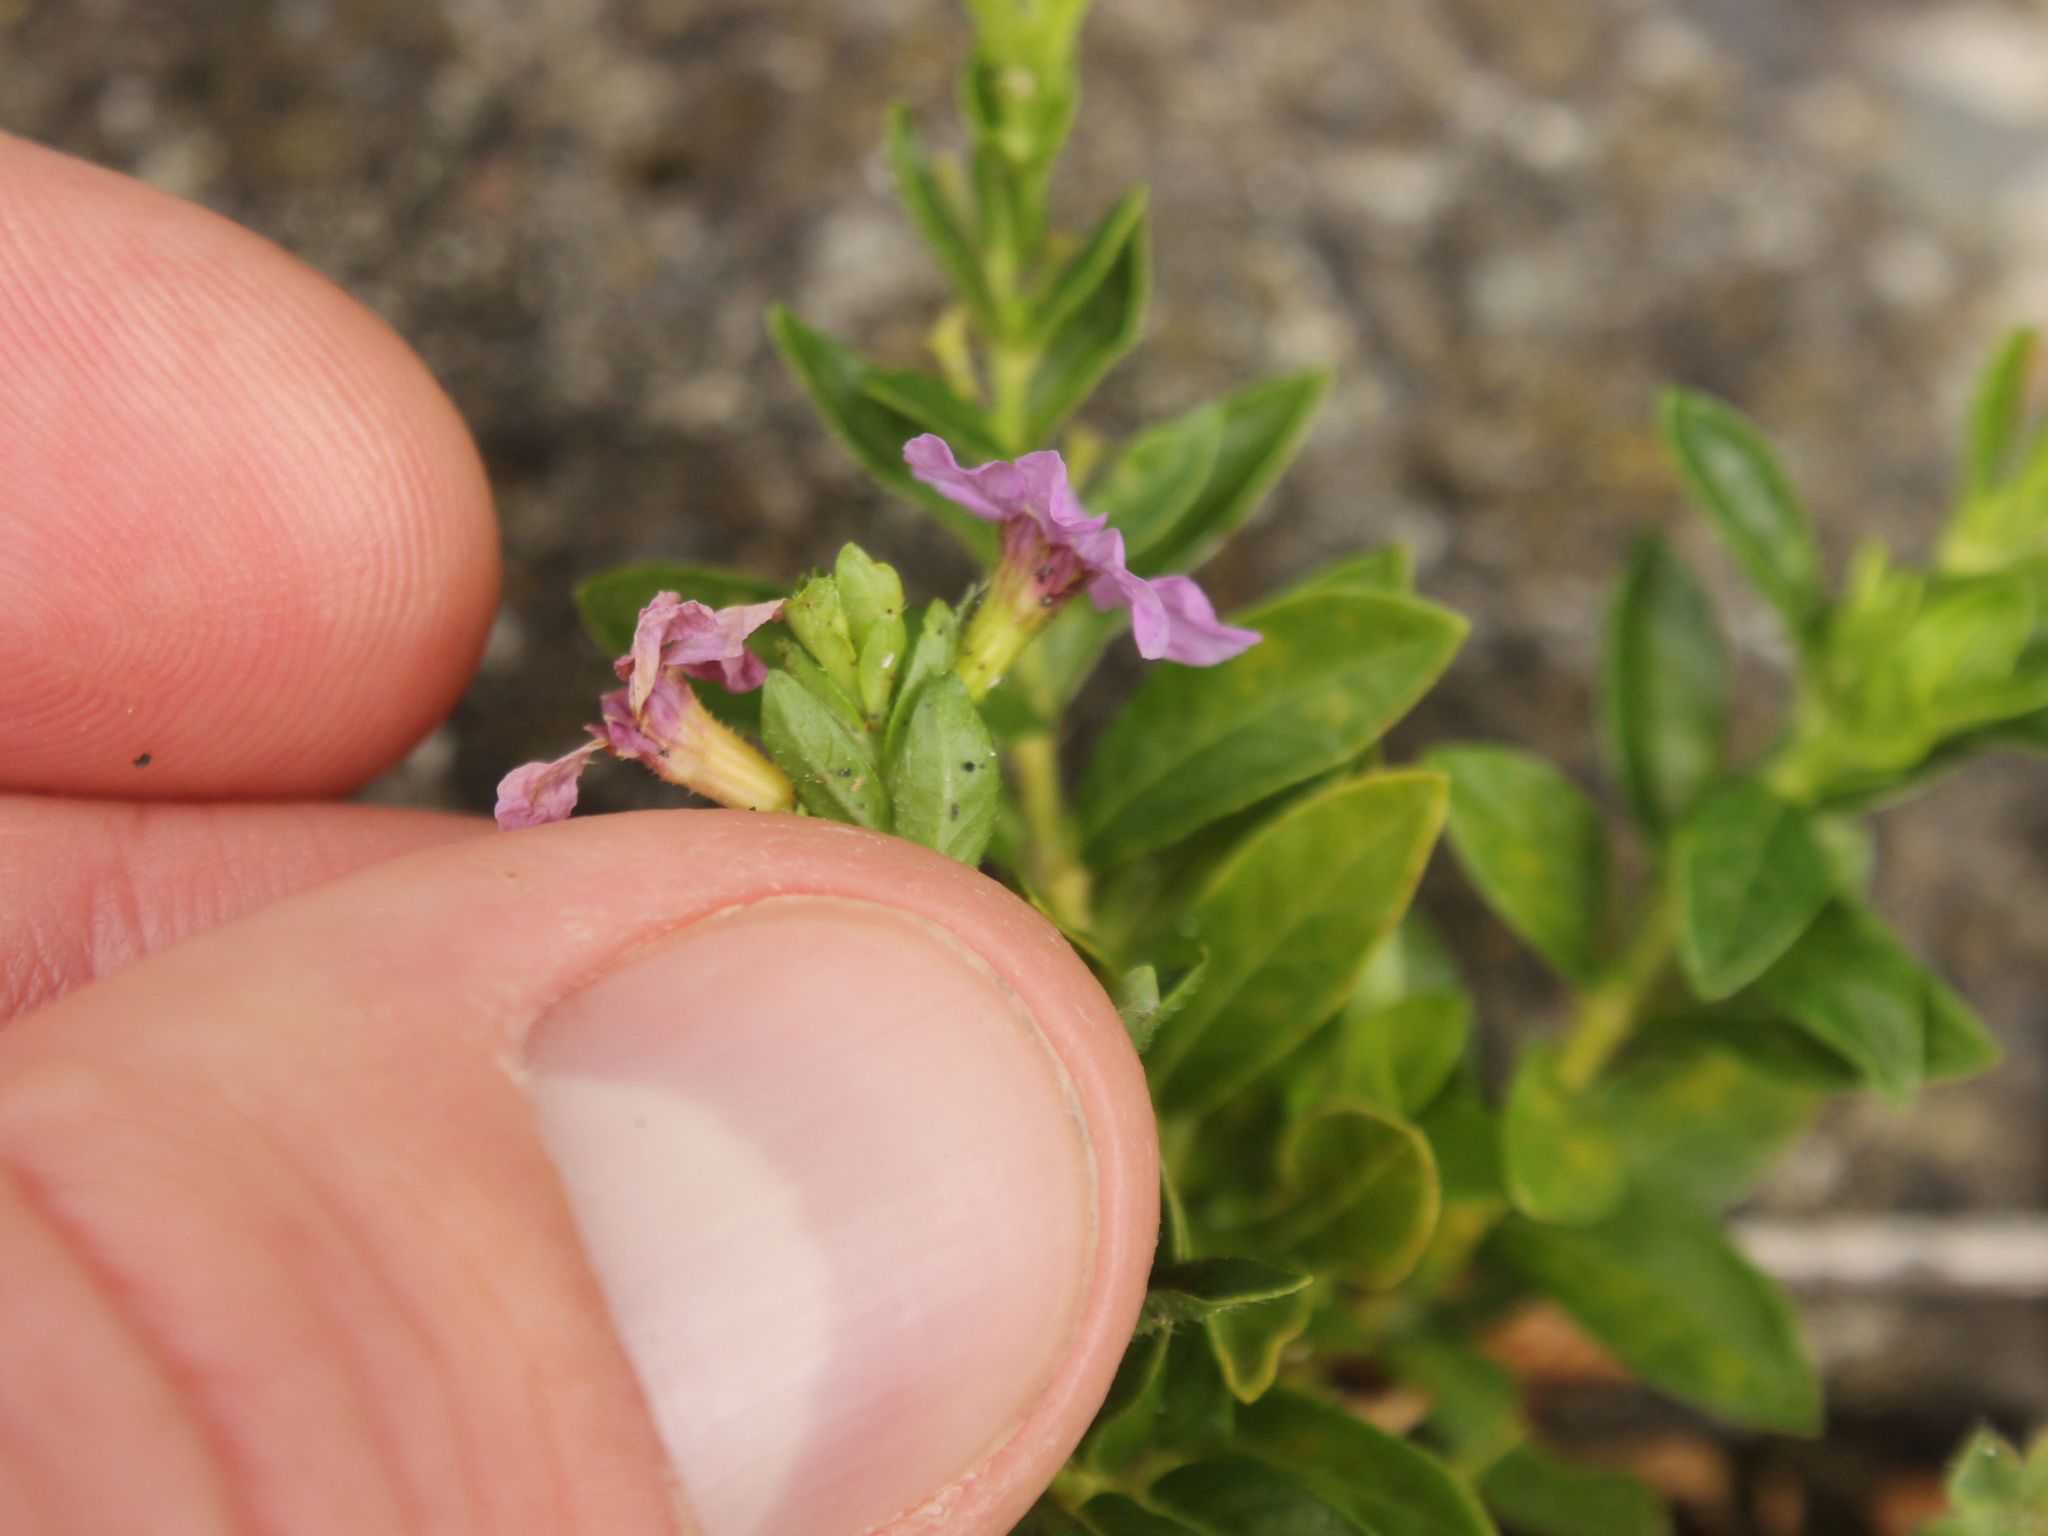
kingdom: Plantae
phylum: Tracheophyta
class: Magnoliopsida
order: Myrtales
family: Lythraceae
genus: Cuphea
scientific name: Cuphea hyssopifolia
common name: False heather
